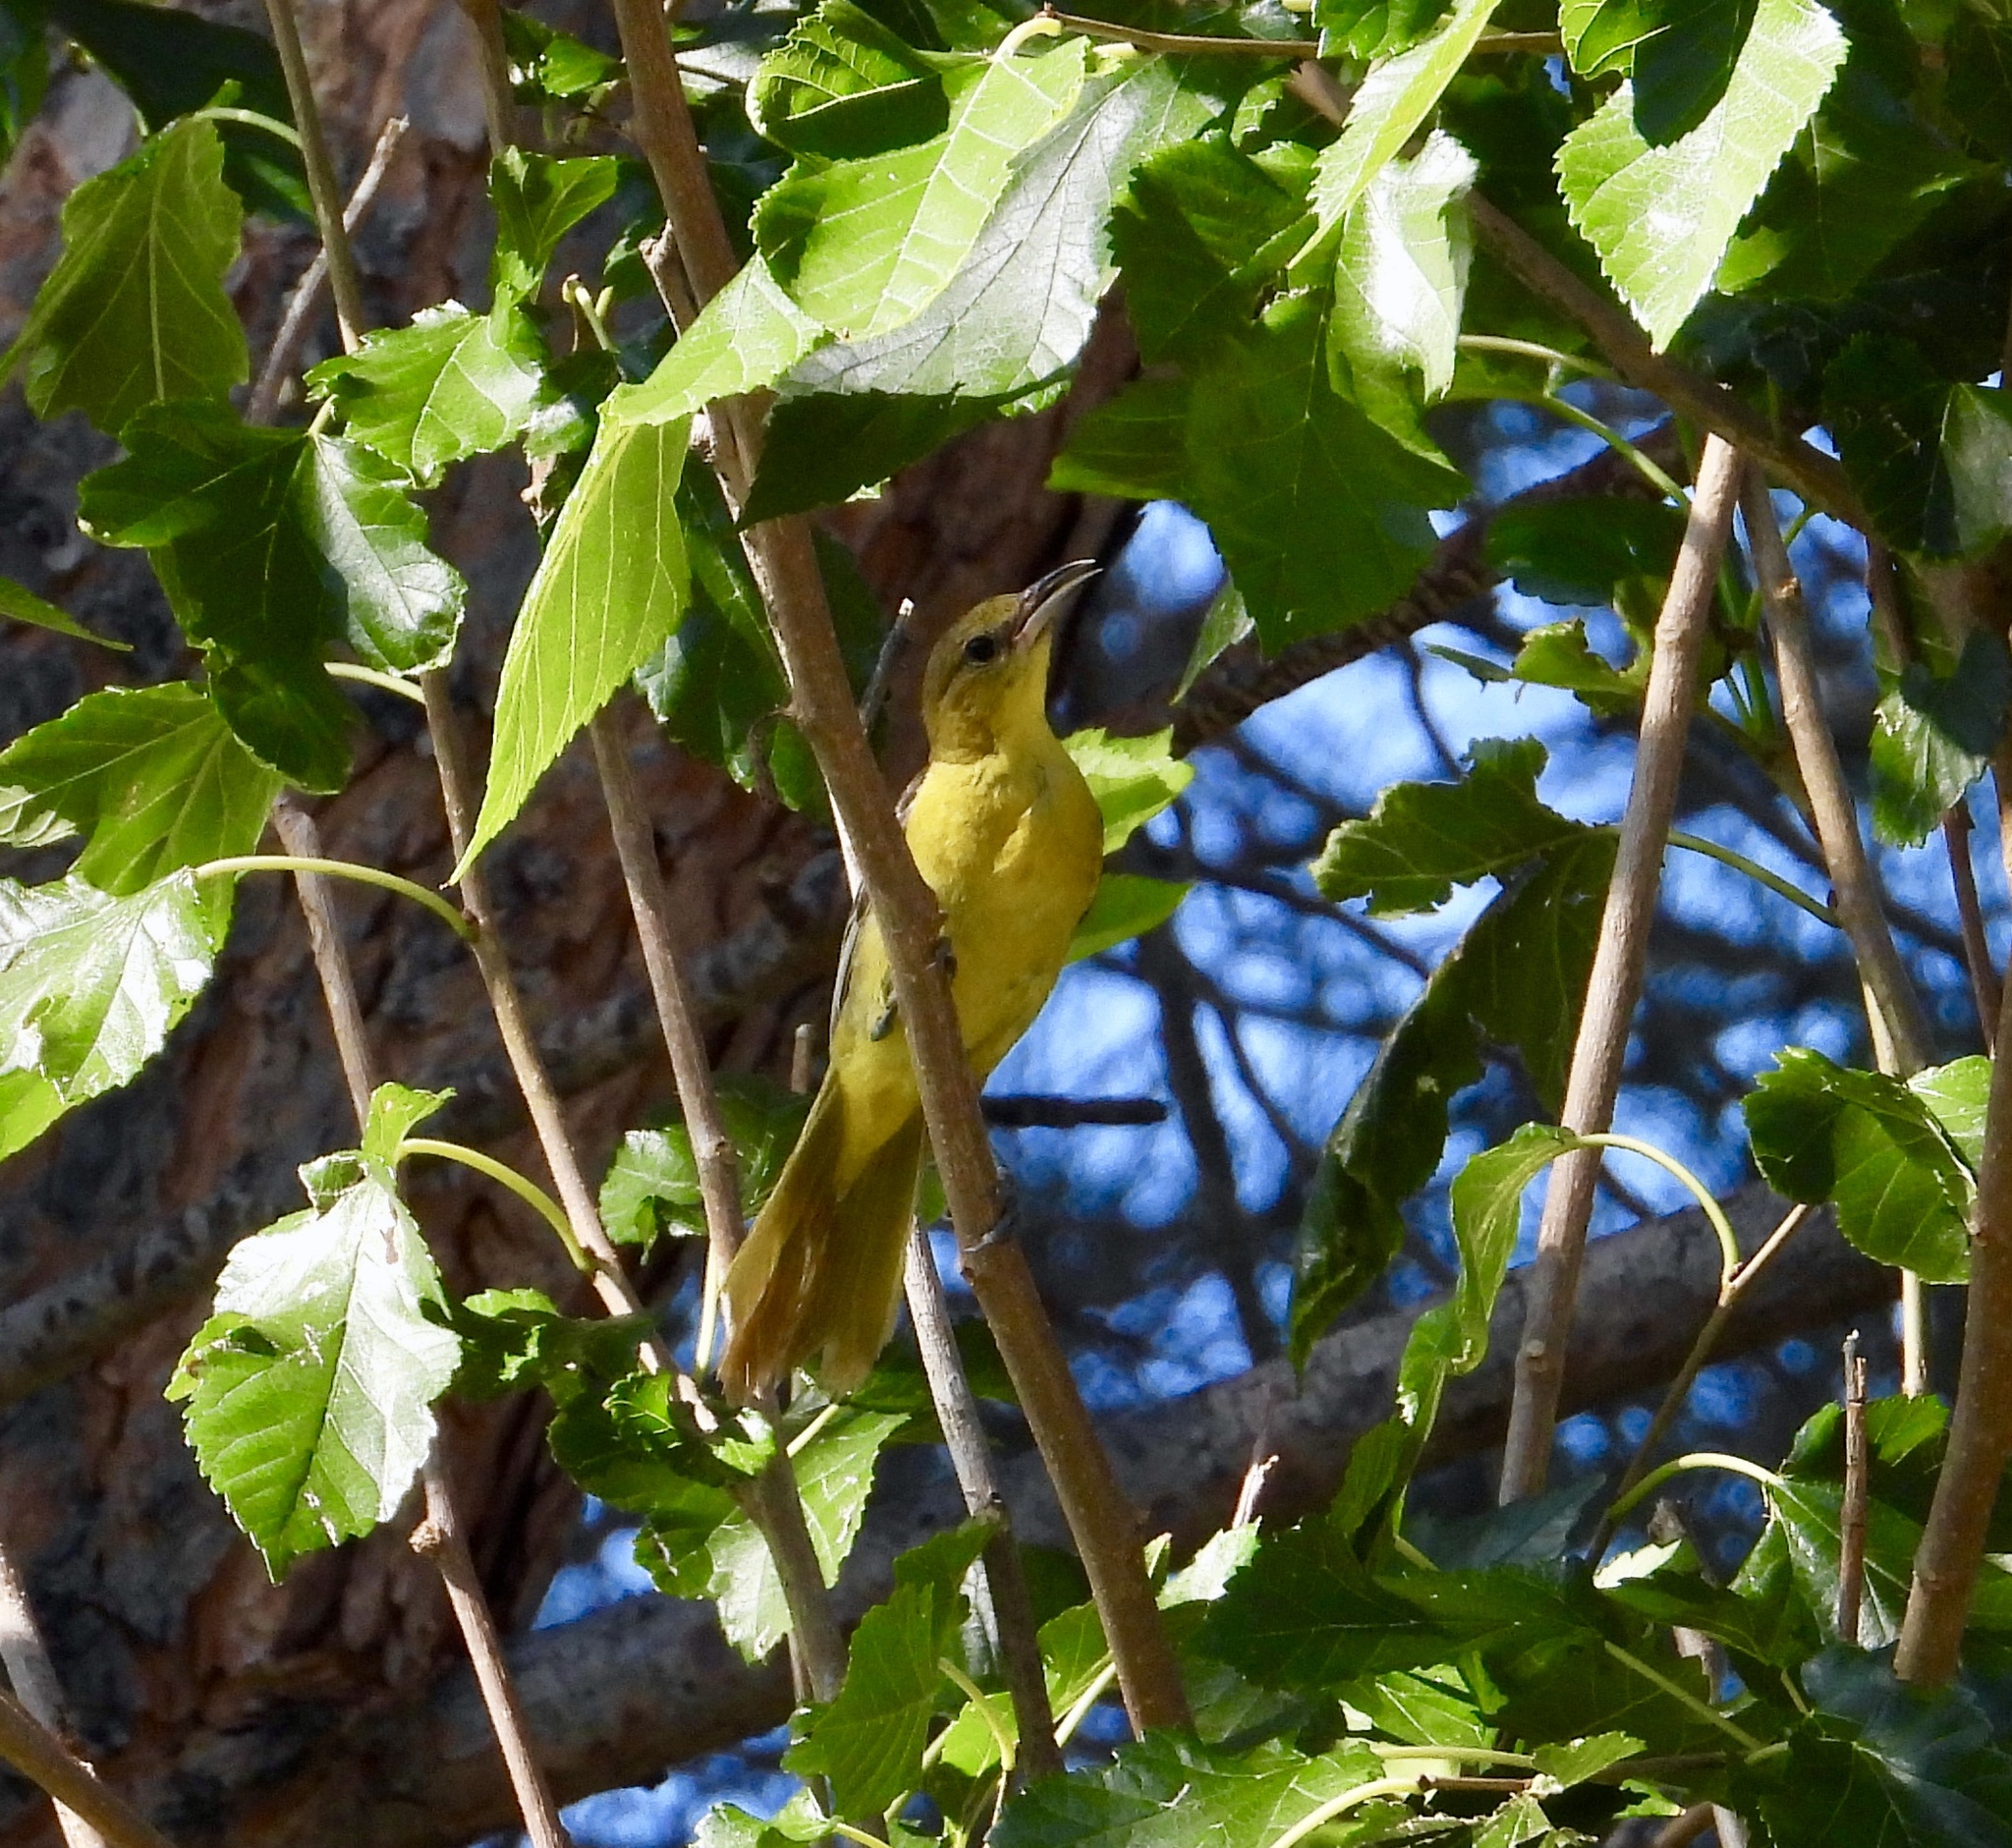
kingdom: Animalia
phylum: Chordata
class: Aves
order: Passeriformes
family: Icteridae
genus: Icterus
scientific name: Icterus cucullatus
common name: Hooded oriole
